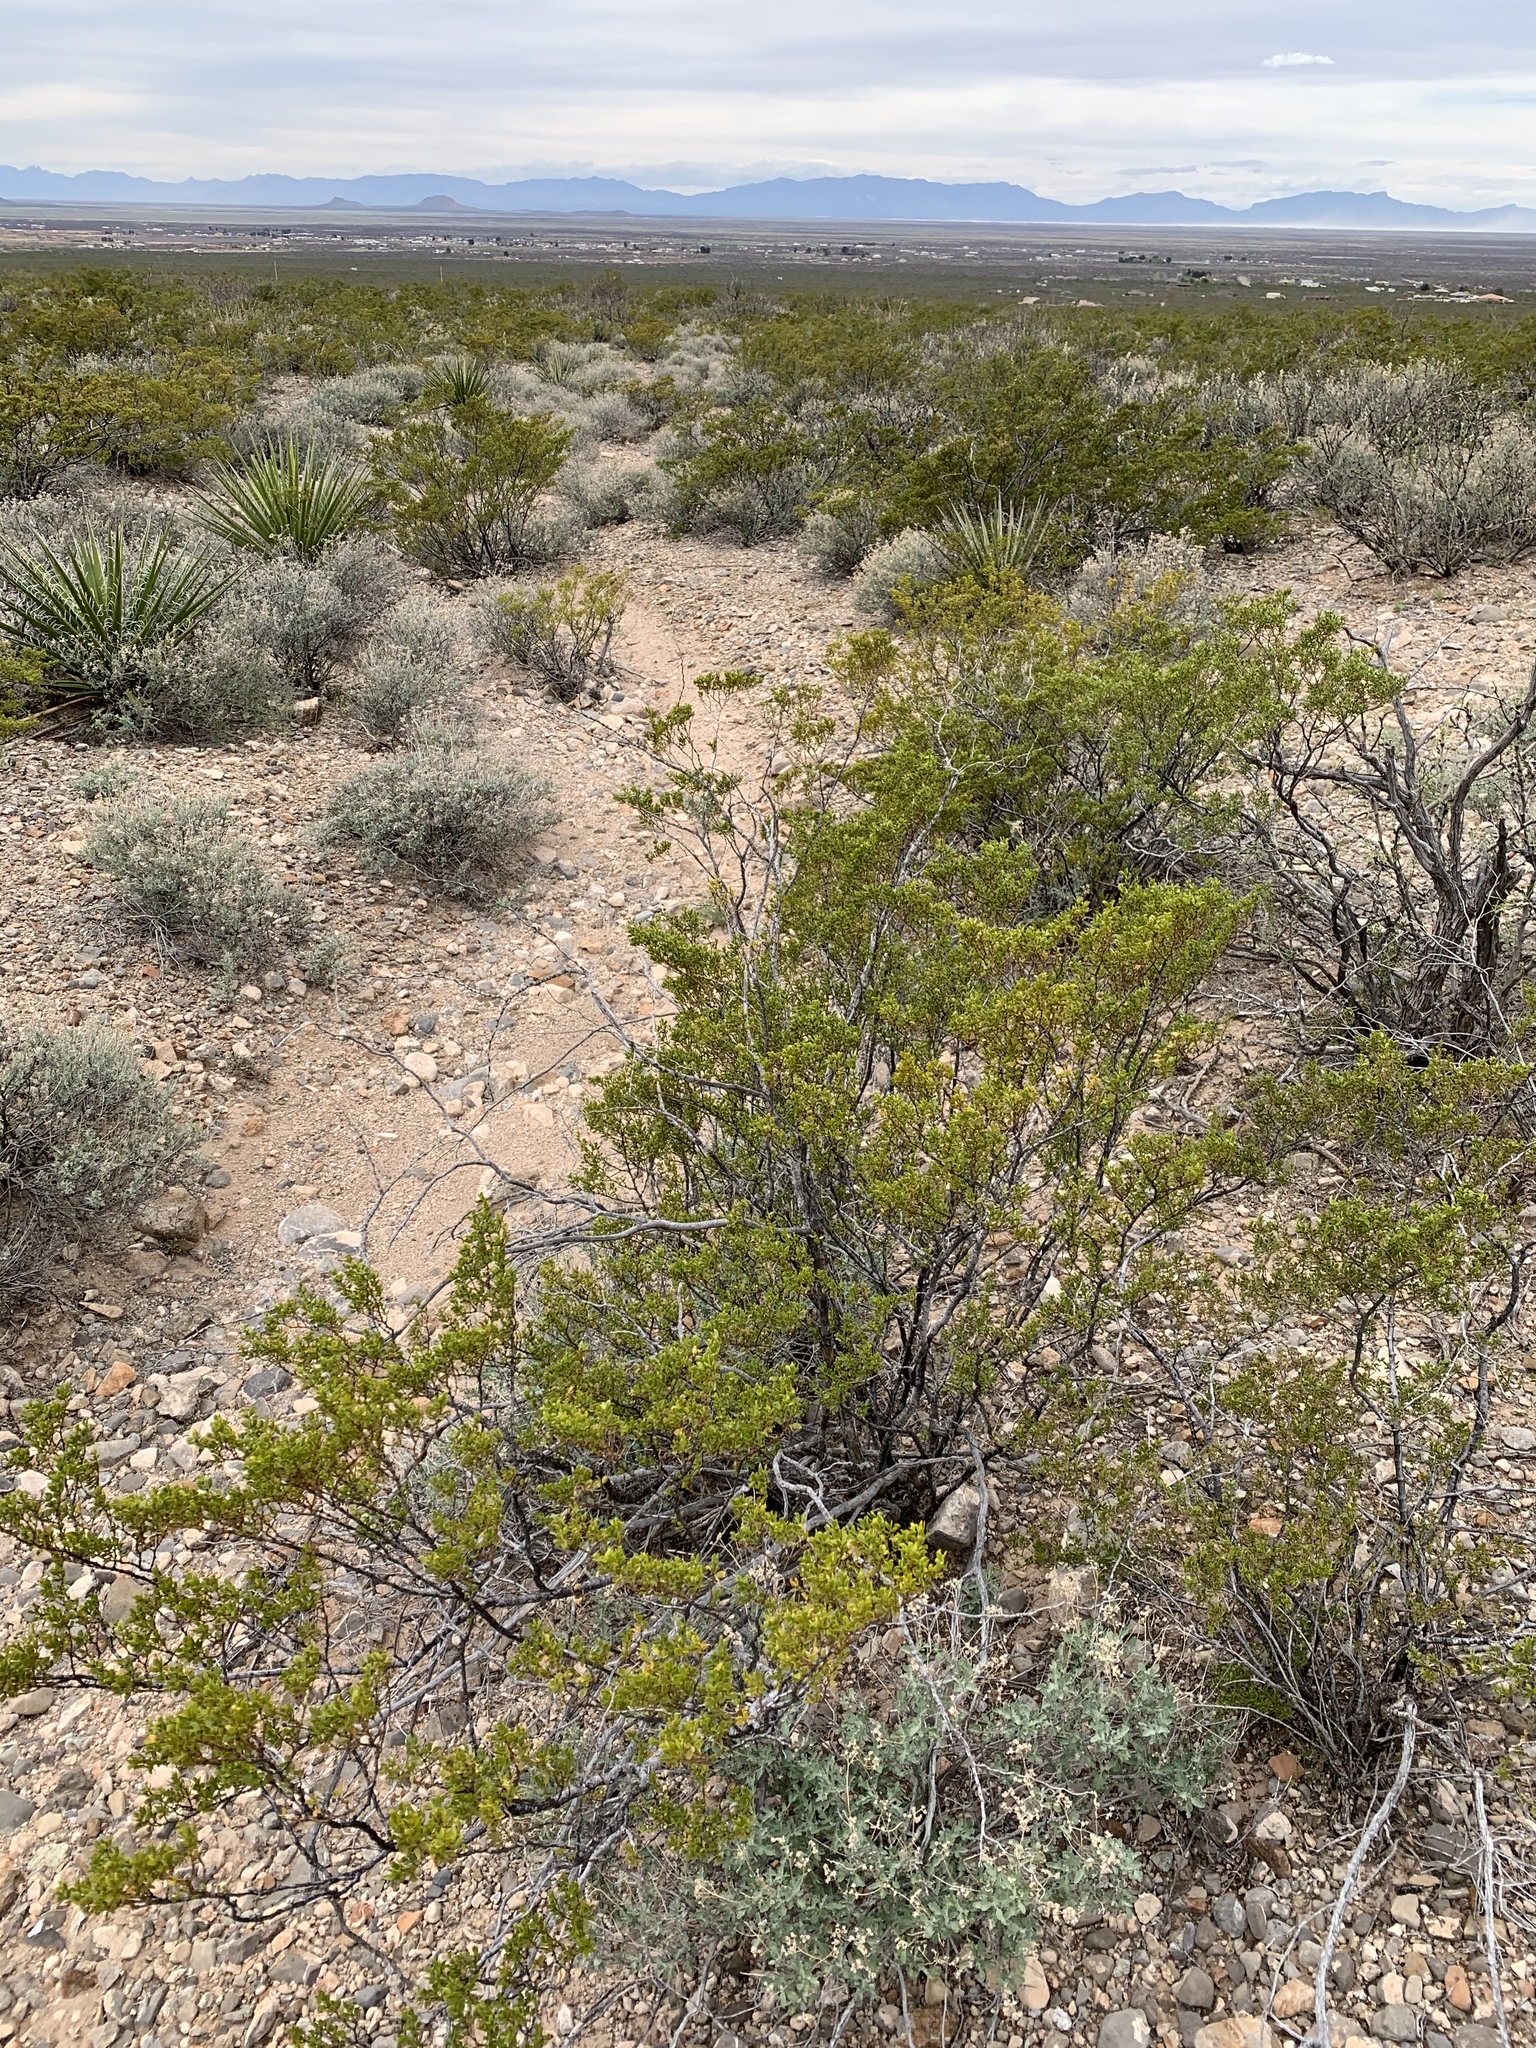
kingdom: Plantae
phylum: Tracheophyta
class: Magnoliopsida
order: Zygophyllales
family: Zygophyllaceae
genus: Larrea
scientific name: Larrea tridentata
